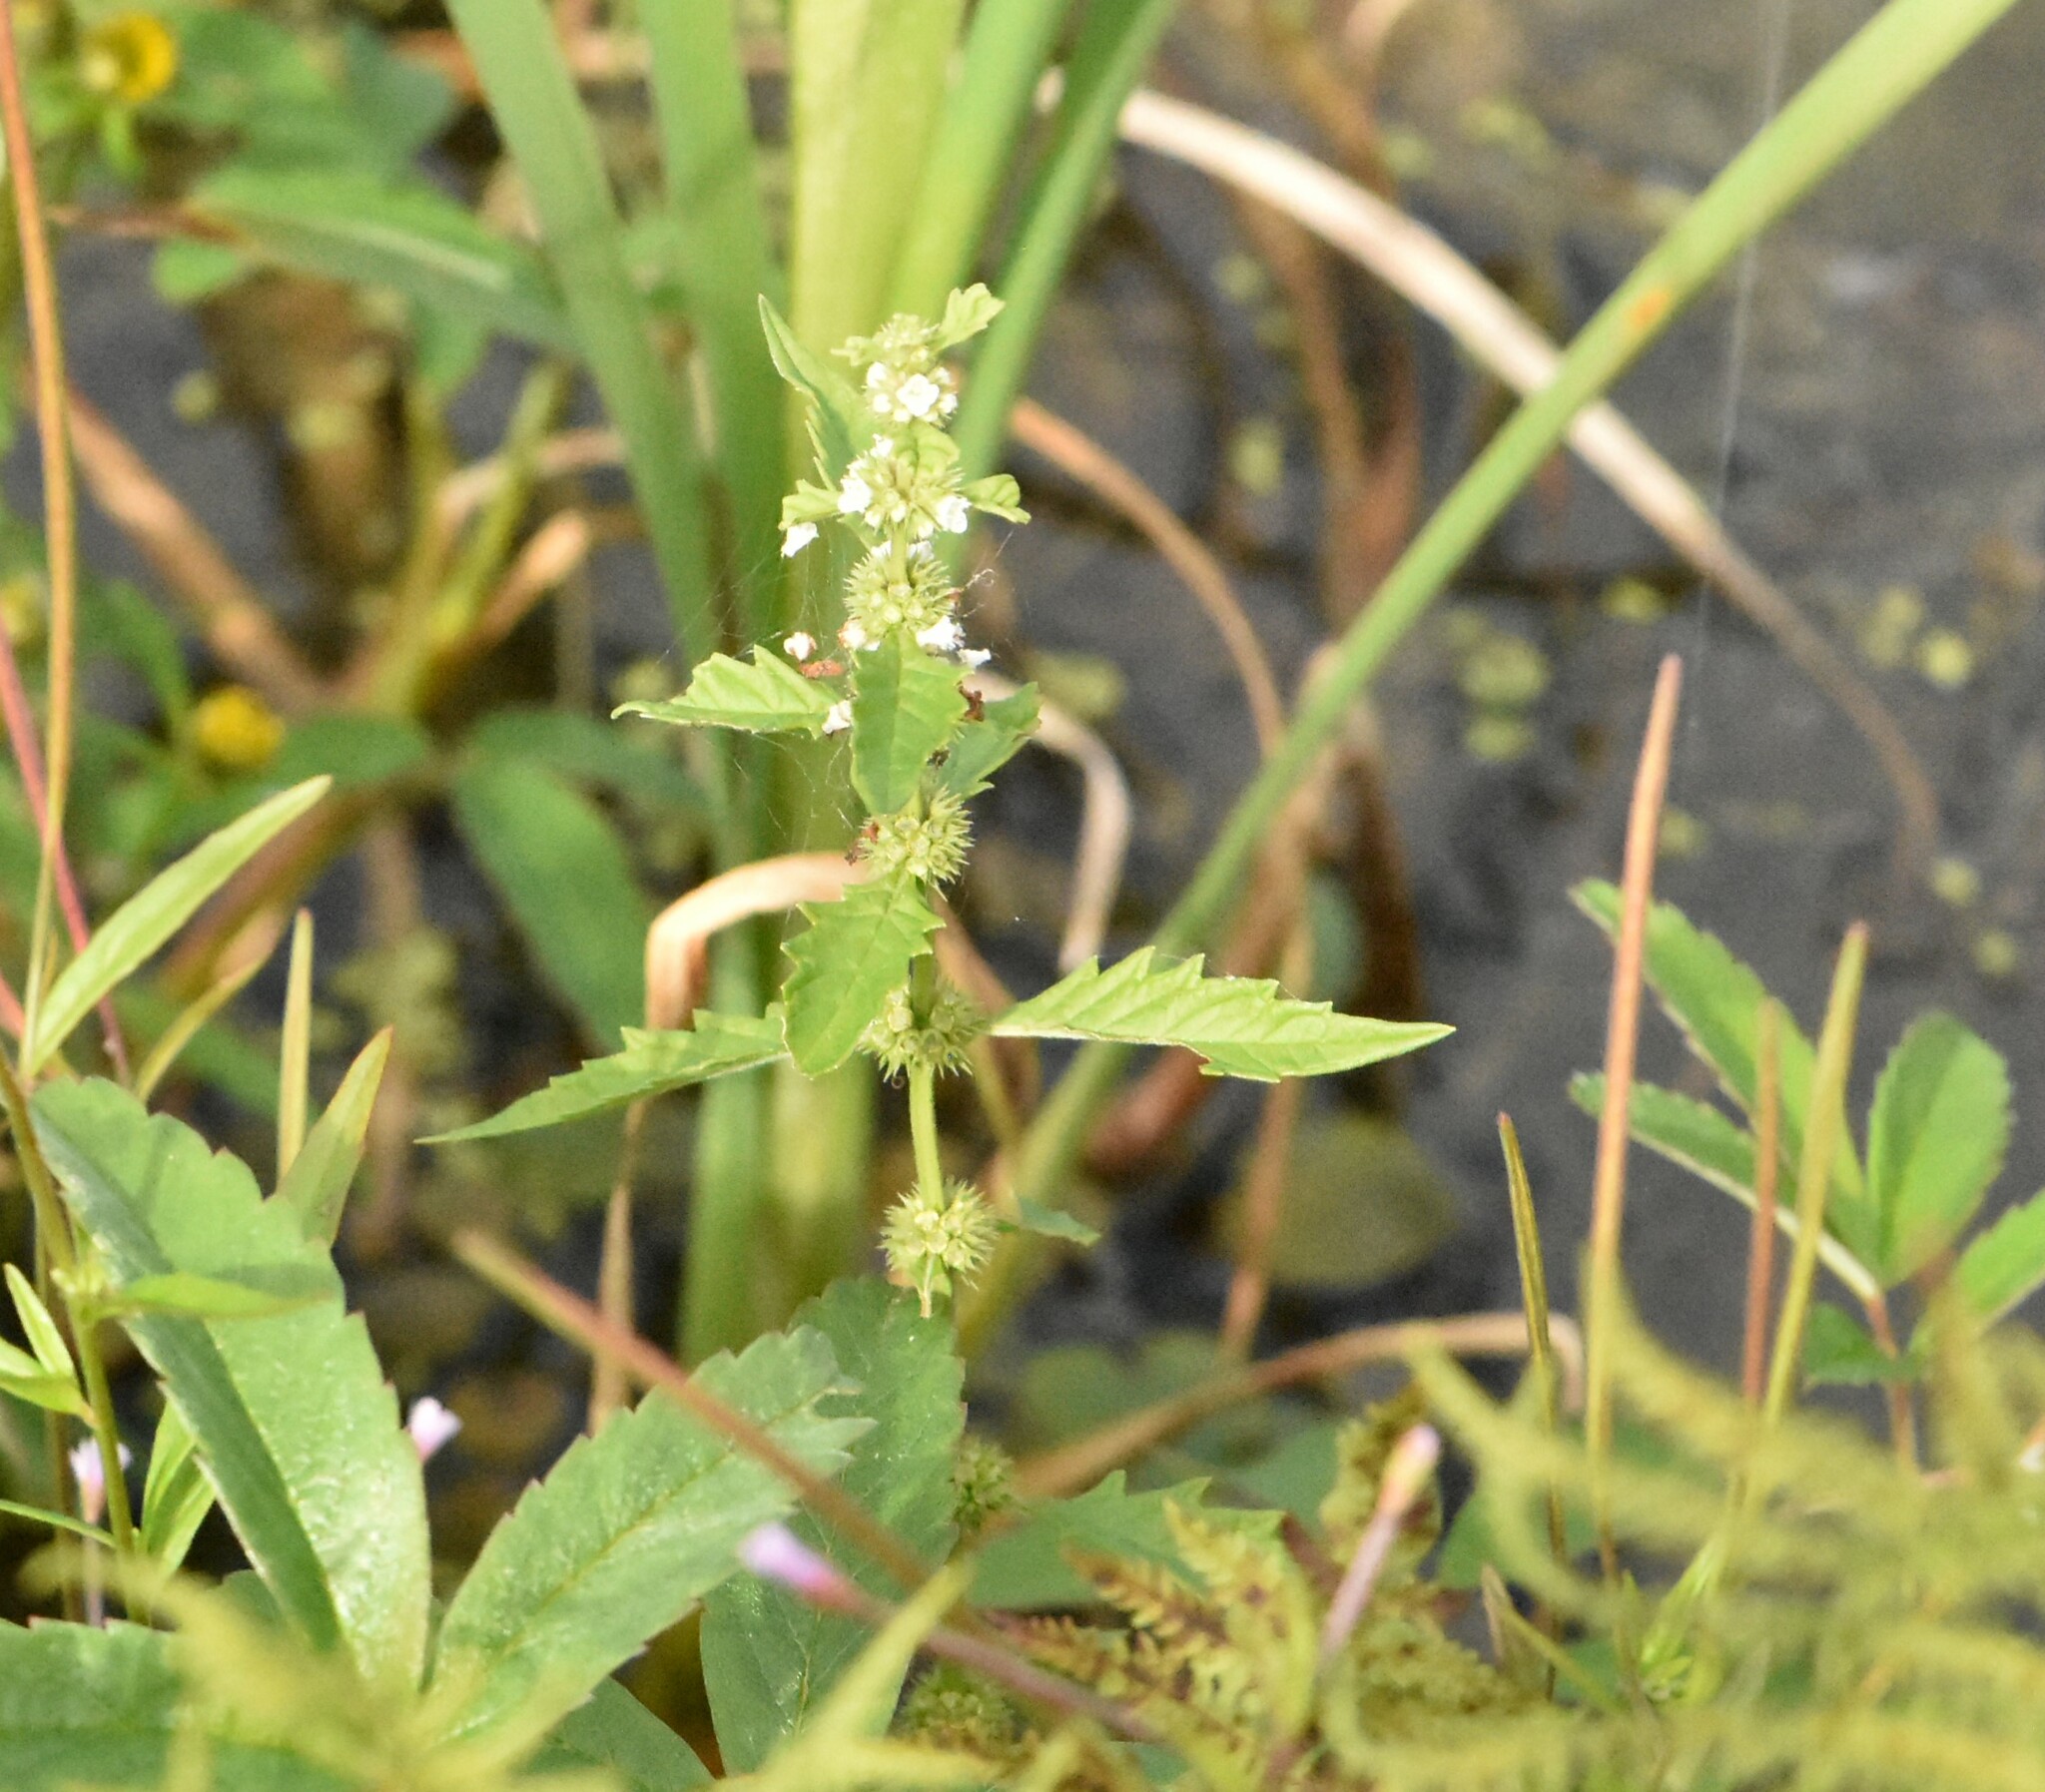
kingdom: Plantae
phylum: Tracheophyta
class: Magnoliopsida
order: Lamiales
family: Lamiaceae
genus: Lycopus
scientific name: Lycopus europaeus
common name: European bugleweed
